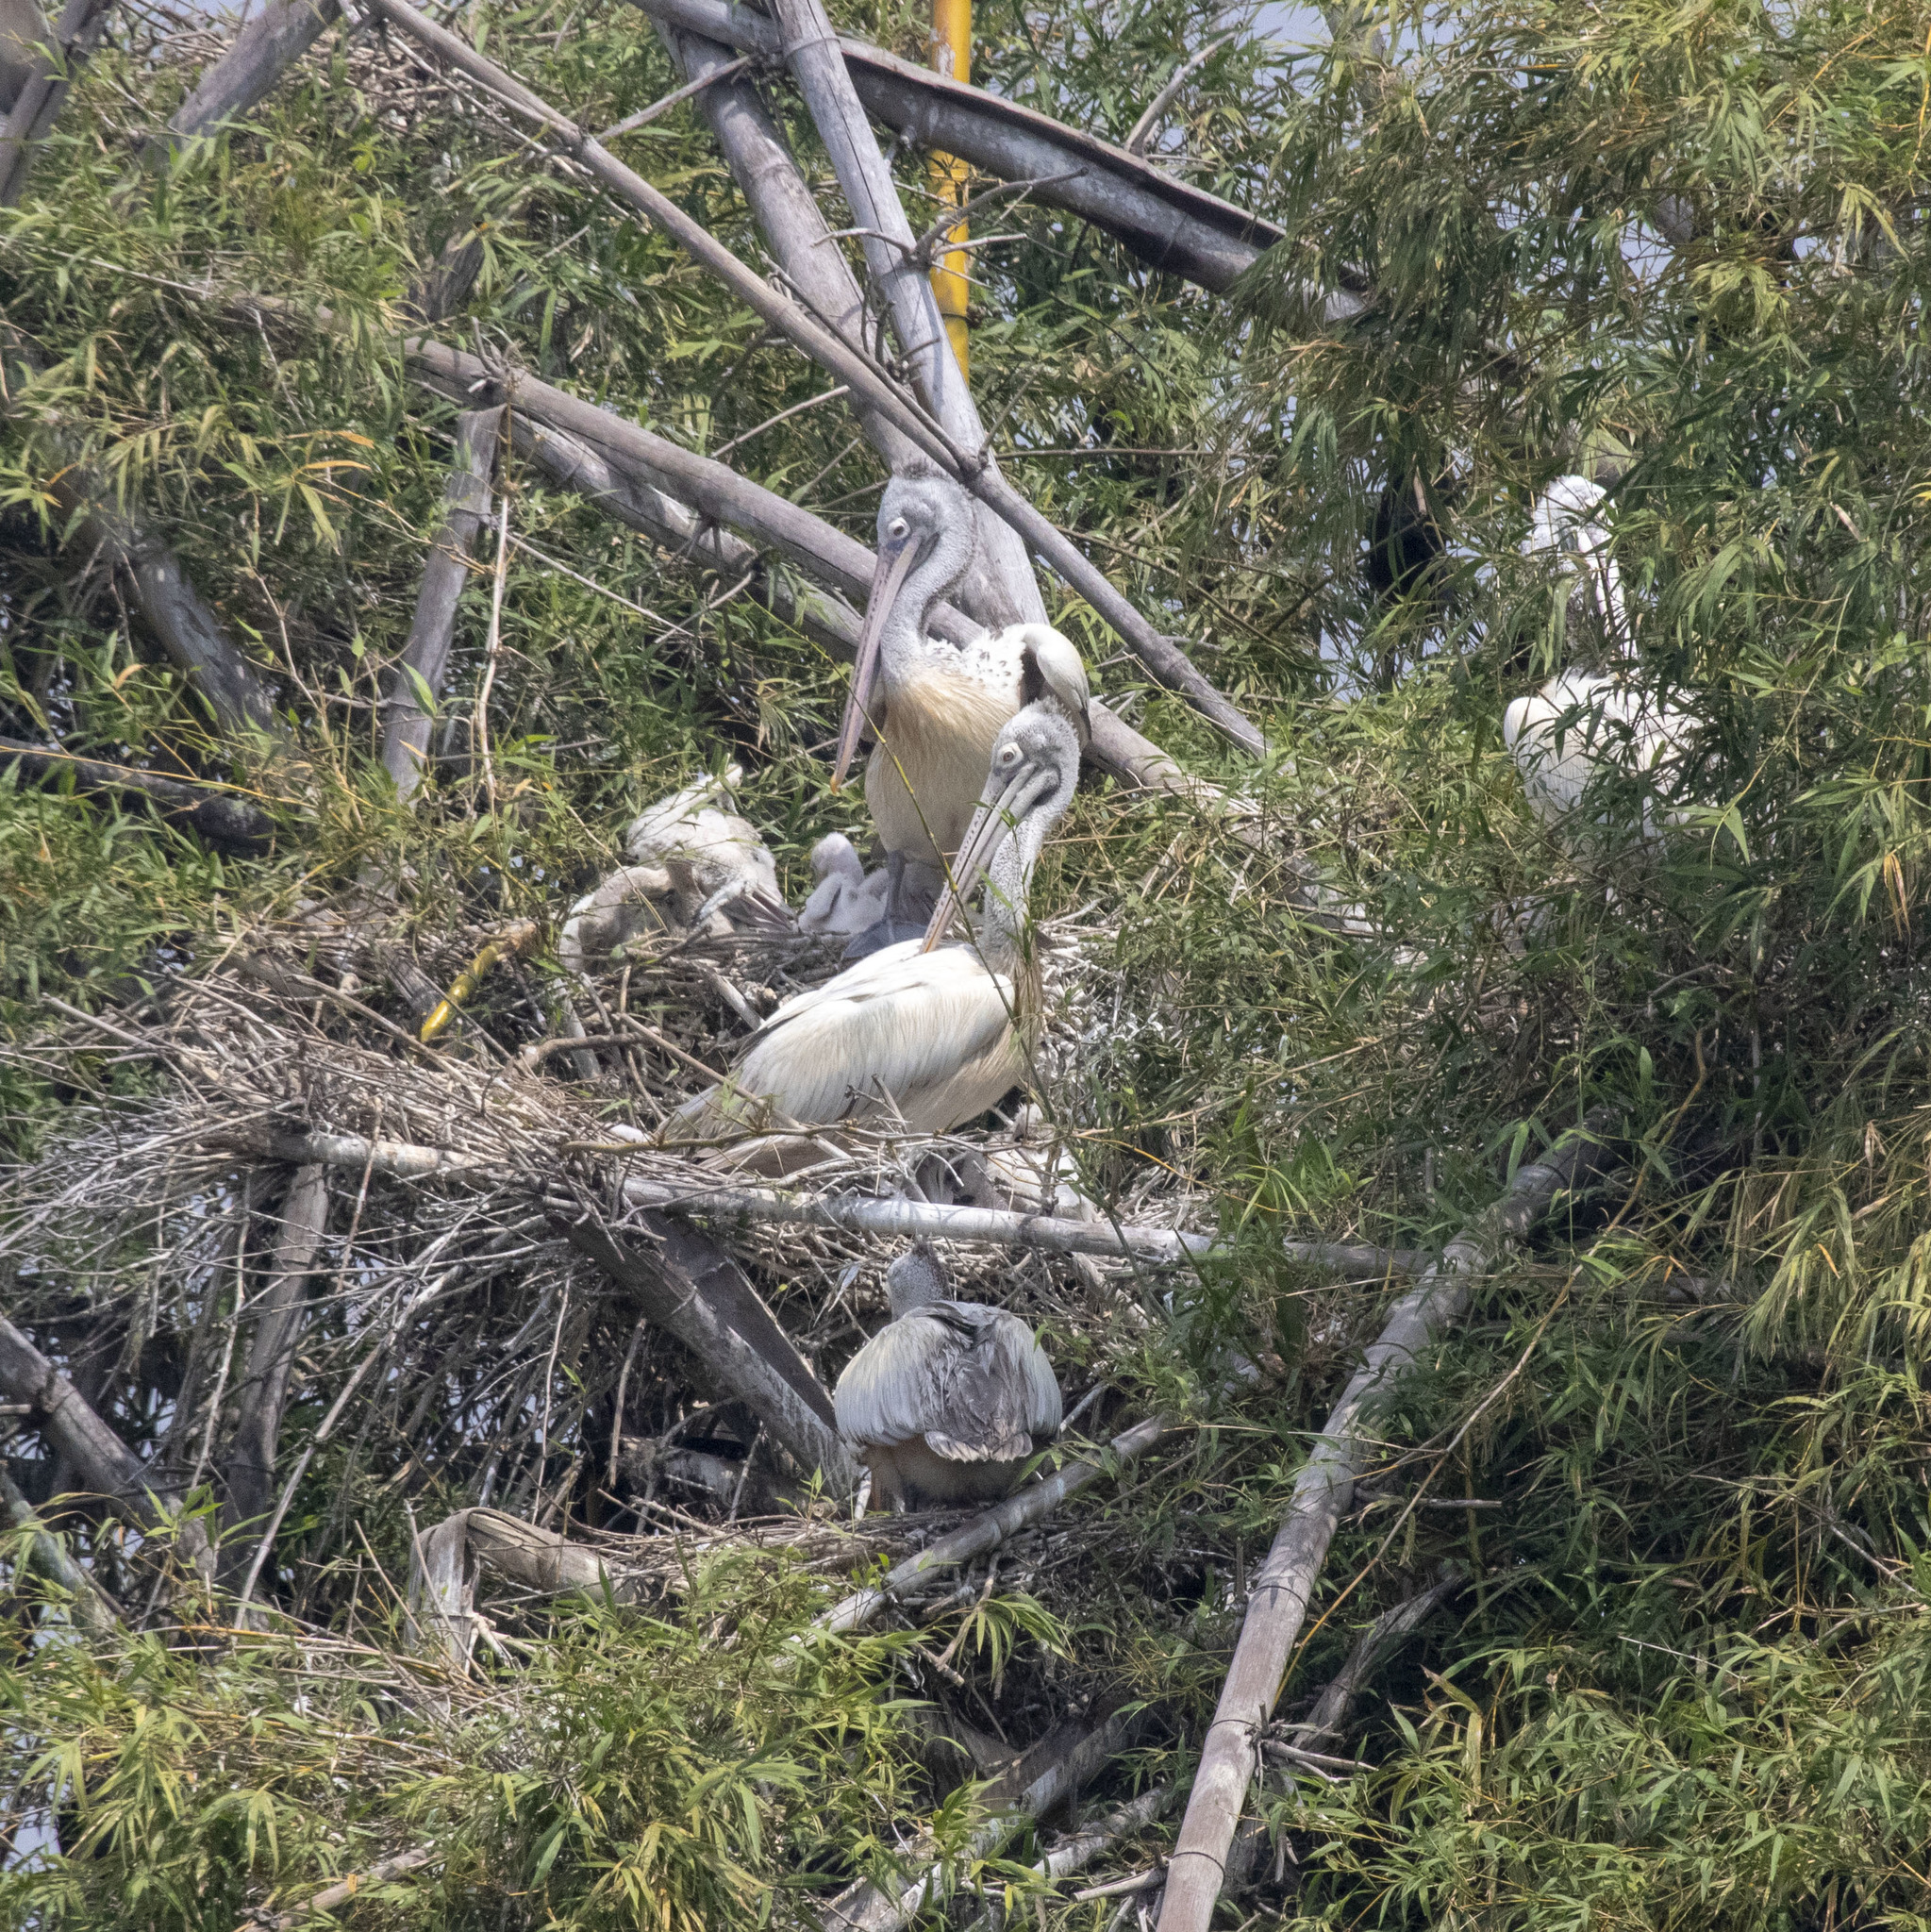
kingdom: Animalia
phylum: Chordata
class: Aves
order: Pelecaniformes
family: Pelecanidae
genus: Pelecanus
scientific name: Pelecanus philippensis
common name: Spot-billed pelican
